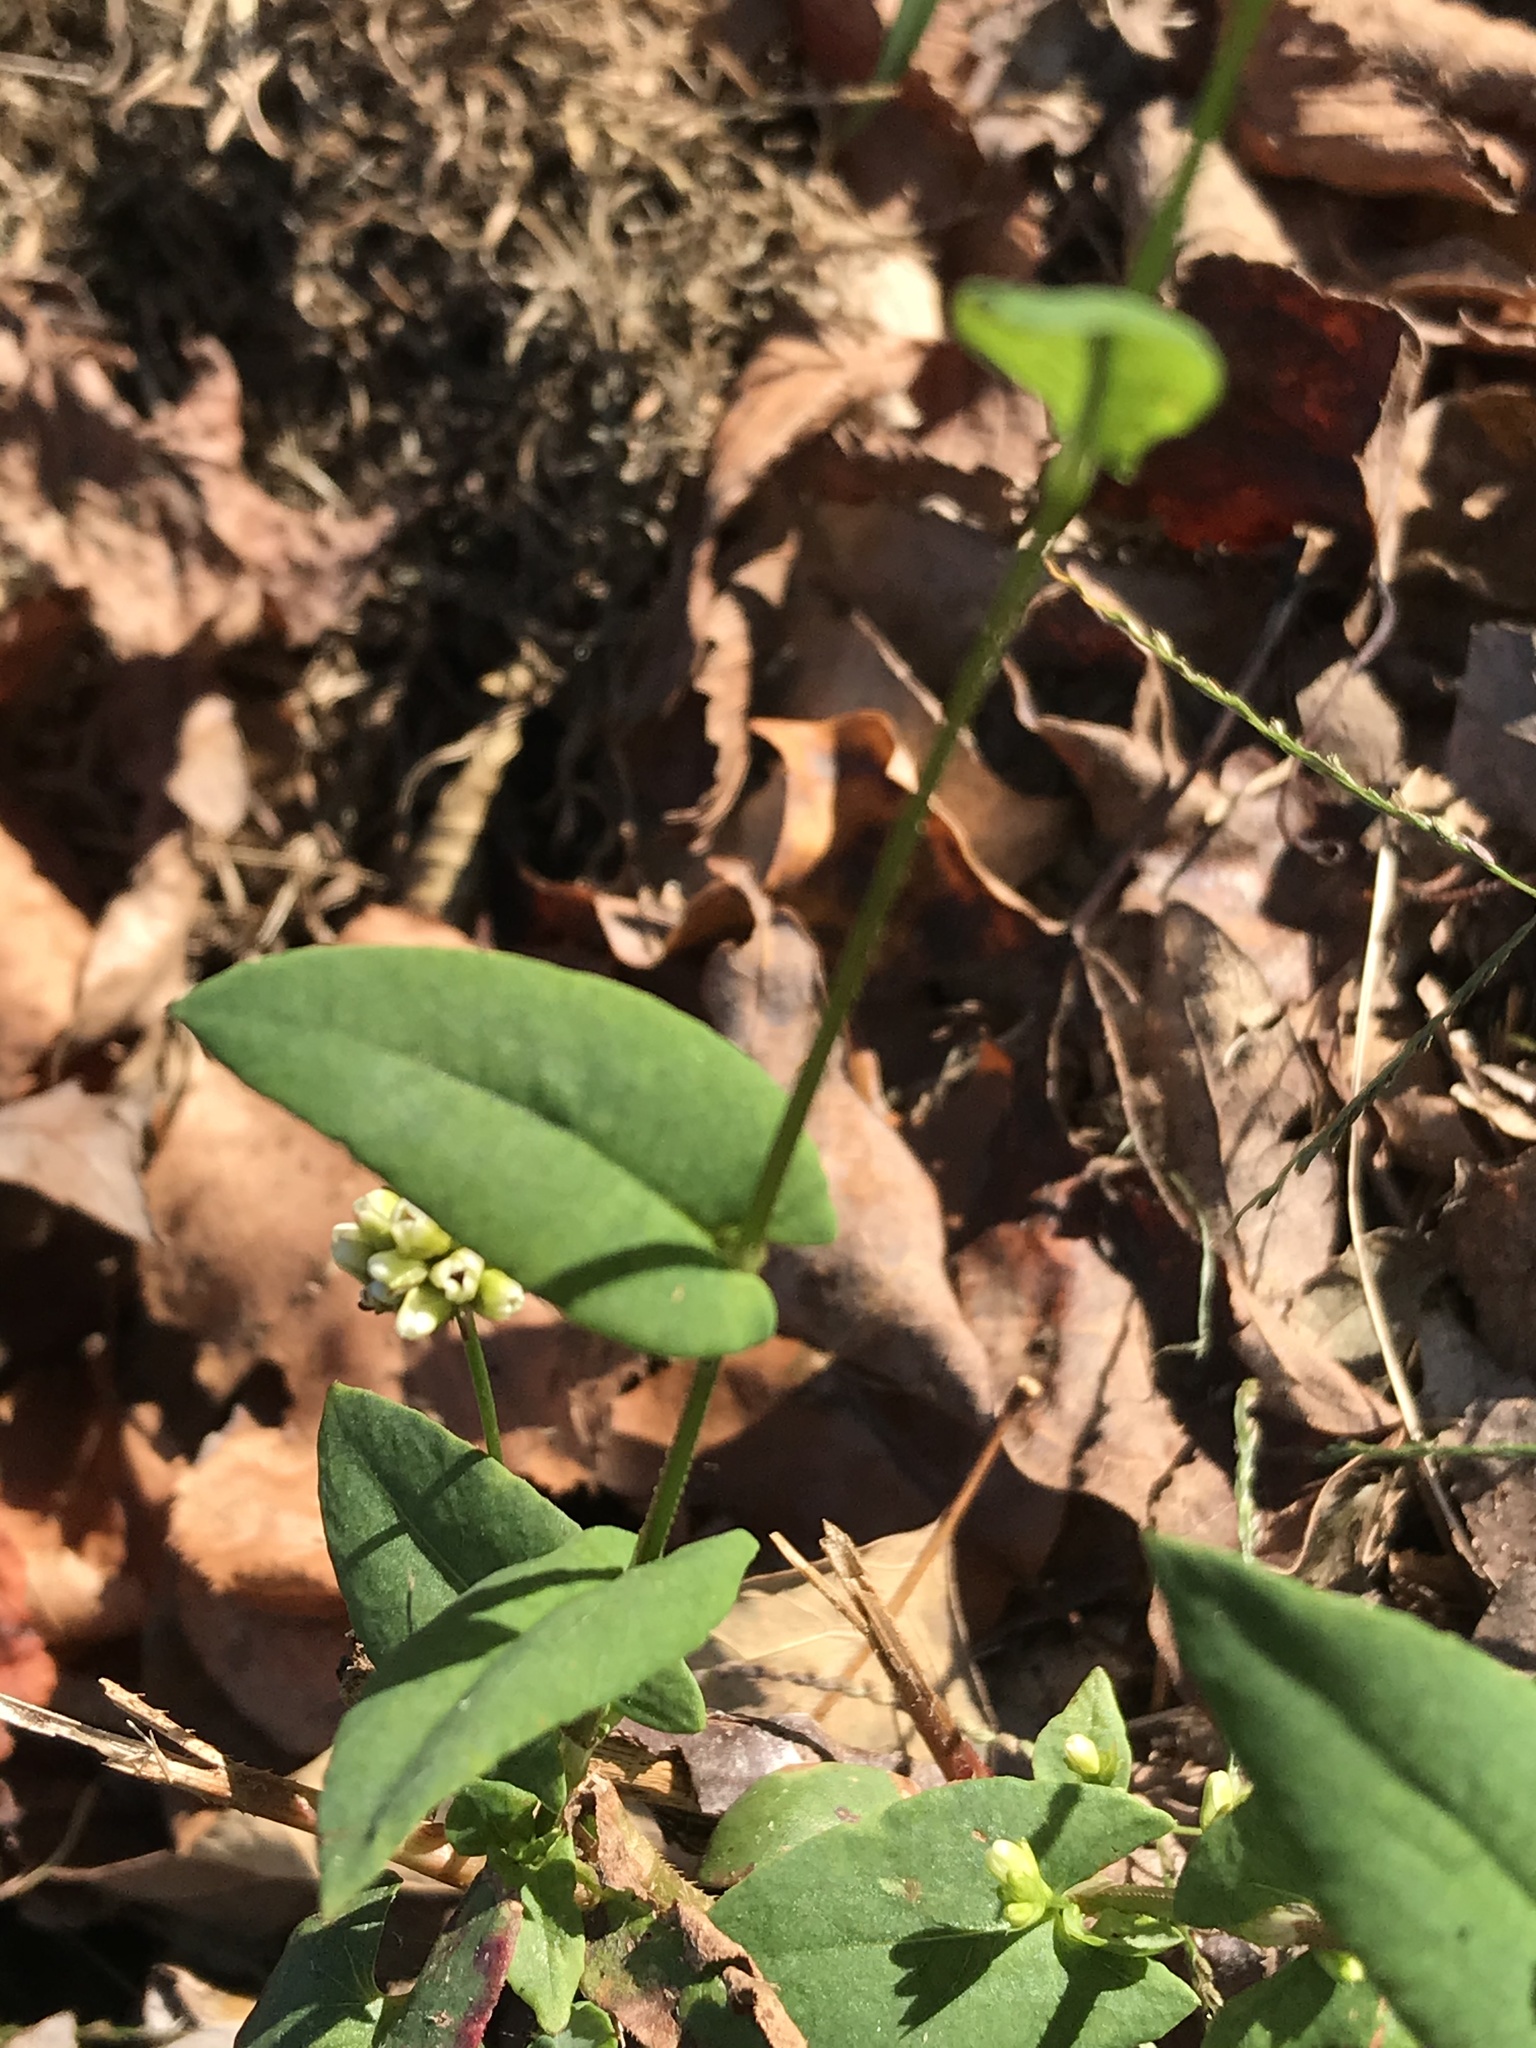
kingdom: Plantae
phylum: Tracheophyta
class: Magnoliopsida
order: Caryophyllales
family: Polygonaceae
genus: Persicaria
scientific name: Persicaria sagittata
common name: American tearthumb
